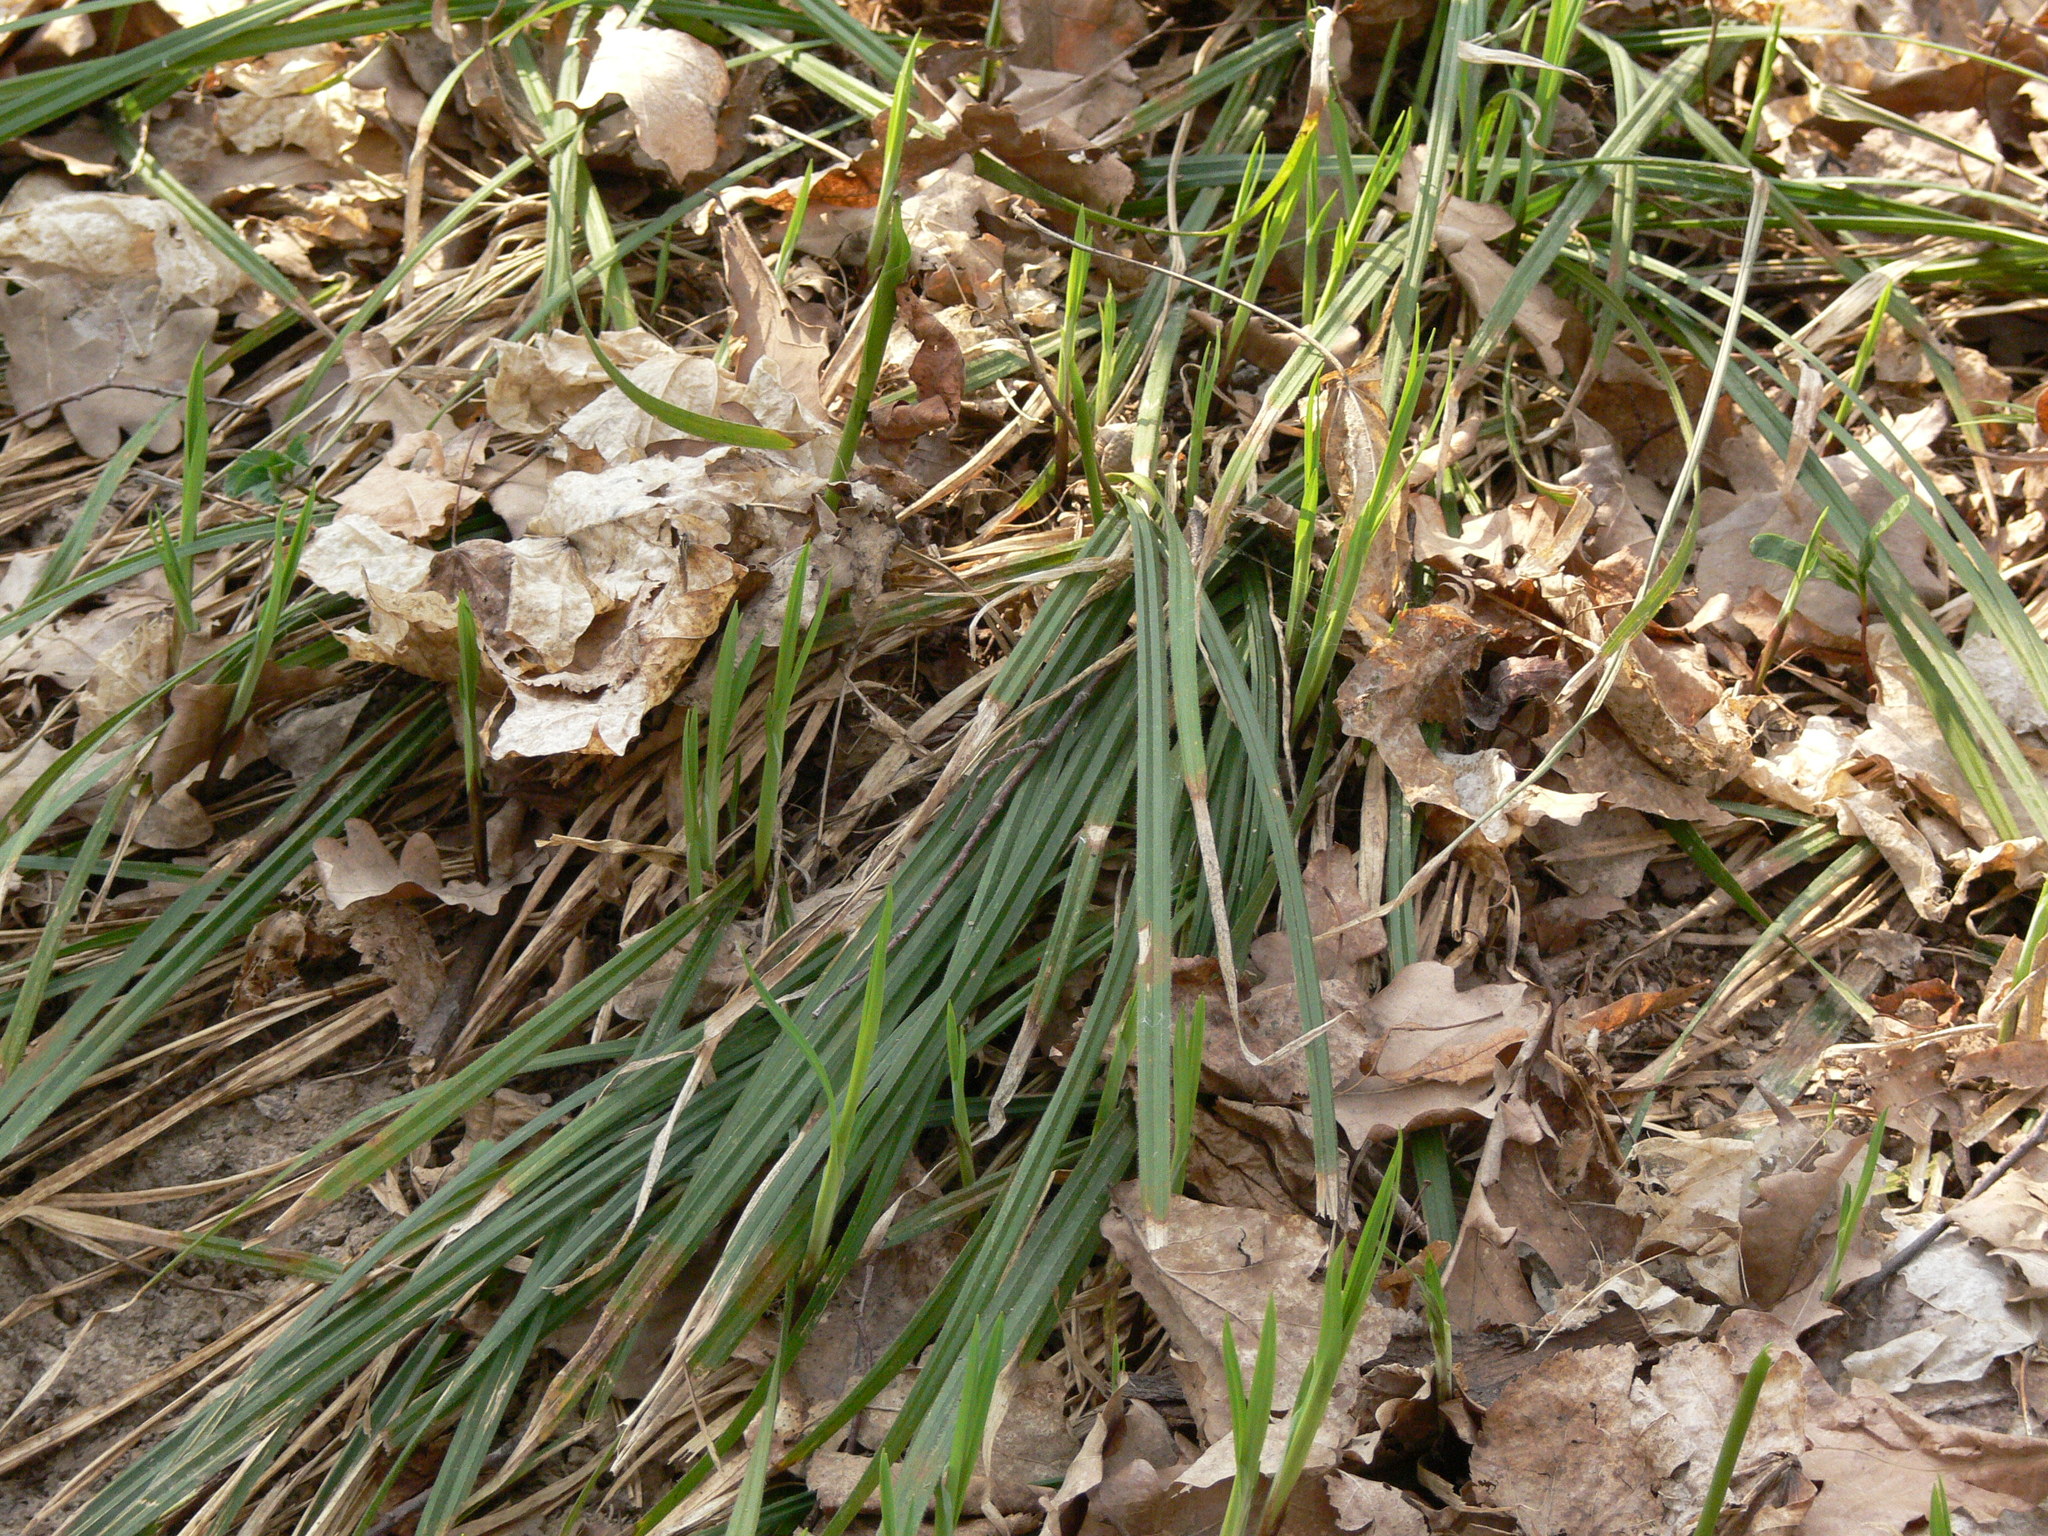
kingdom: Plantae
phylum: Tracheophyta
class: Liliopsida
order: Poales
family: Cyperaceae
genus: Carex
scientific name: Carex pilosa
